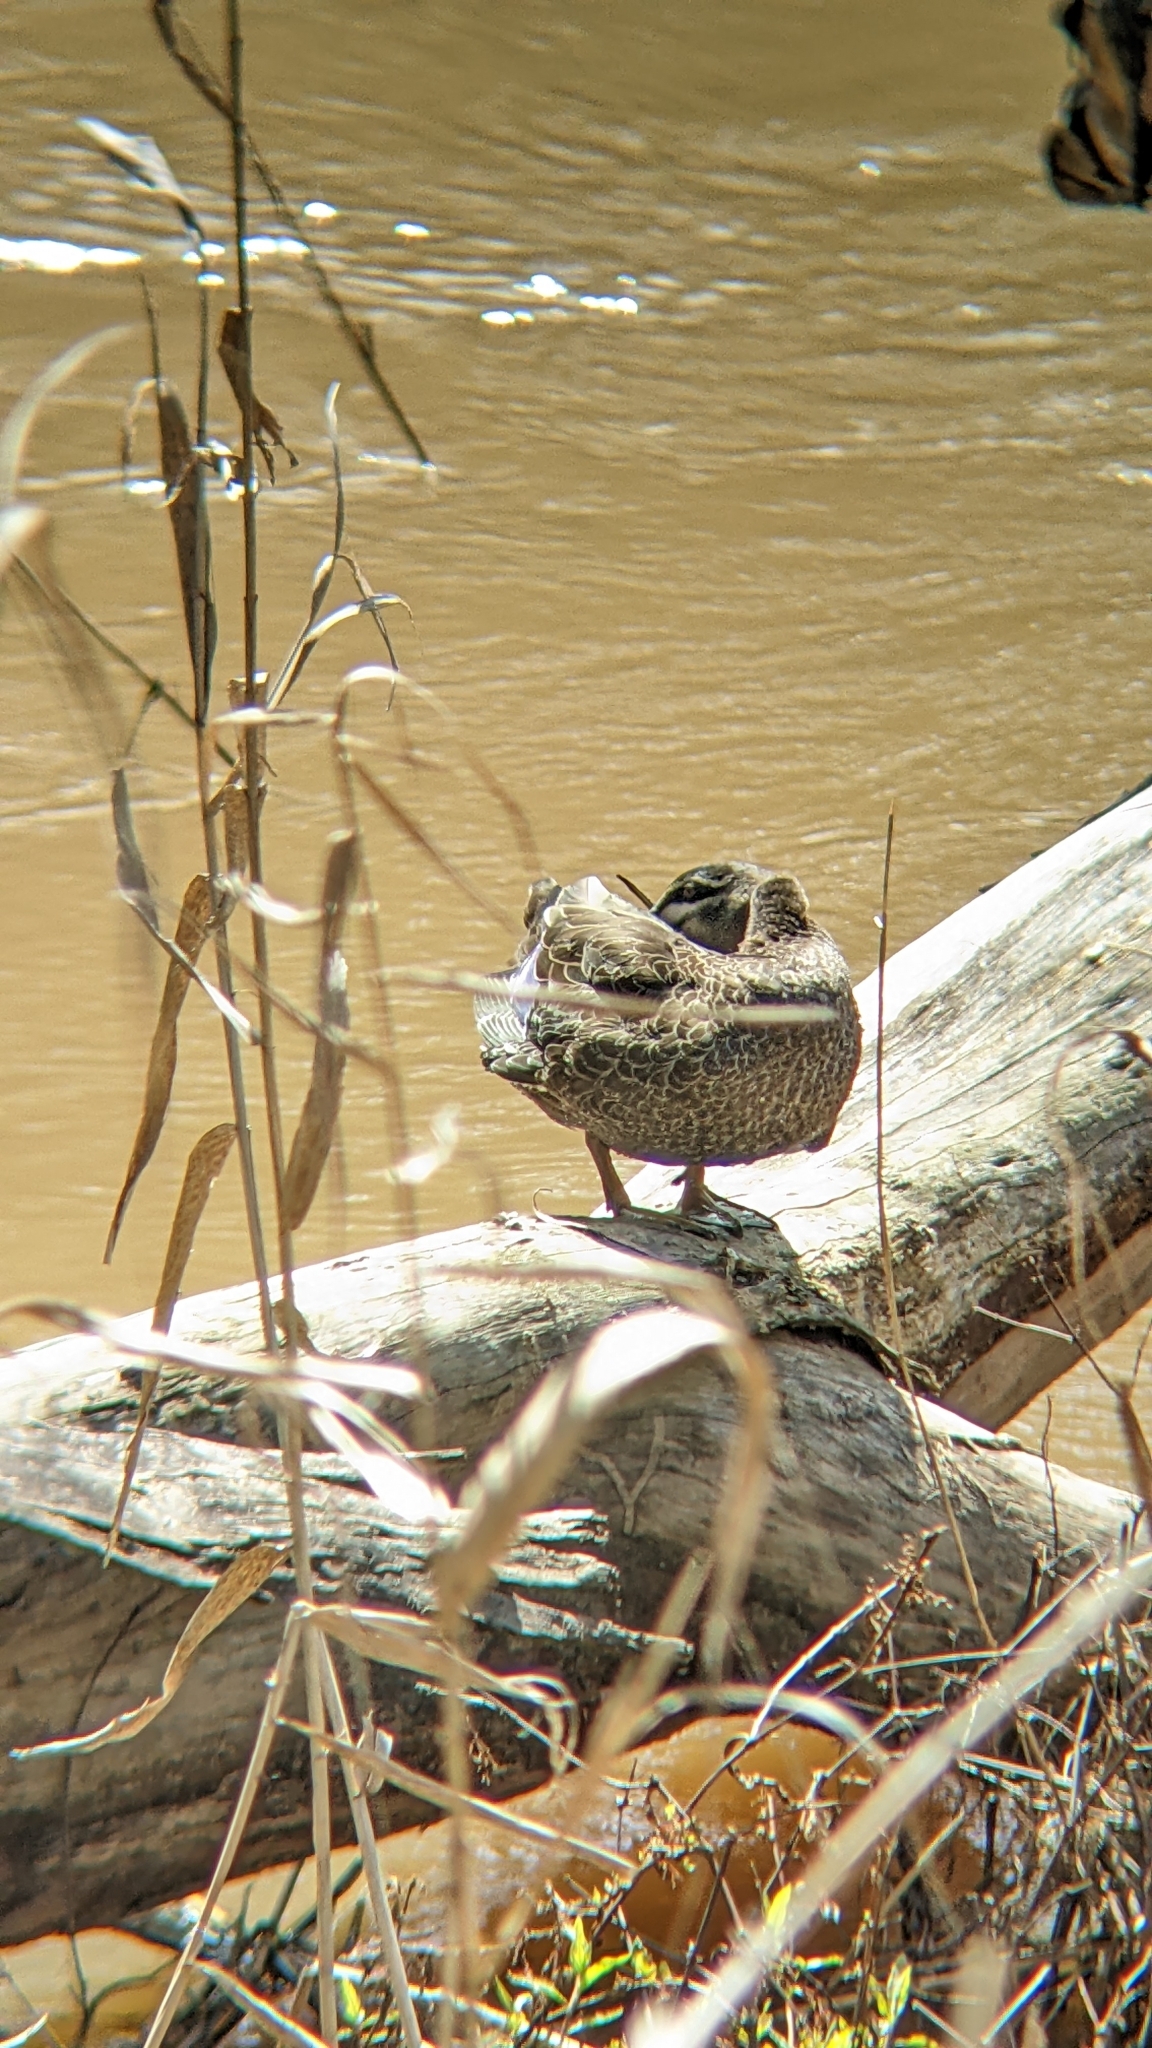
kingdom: Animalia
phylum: Chordata
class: Aves
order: Anseriformes
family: Anatidae
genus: Anas
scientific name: Anas superciliosa
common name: Pacific black duck
